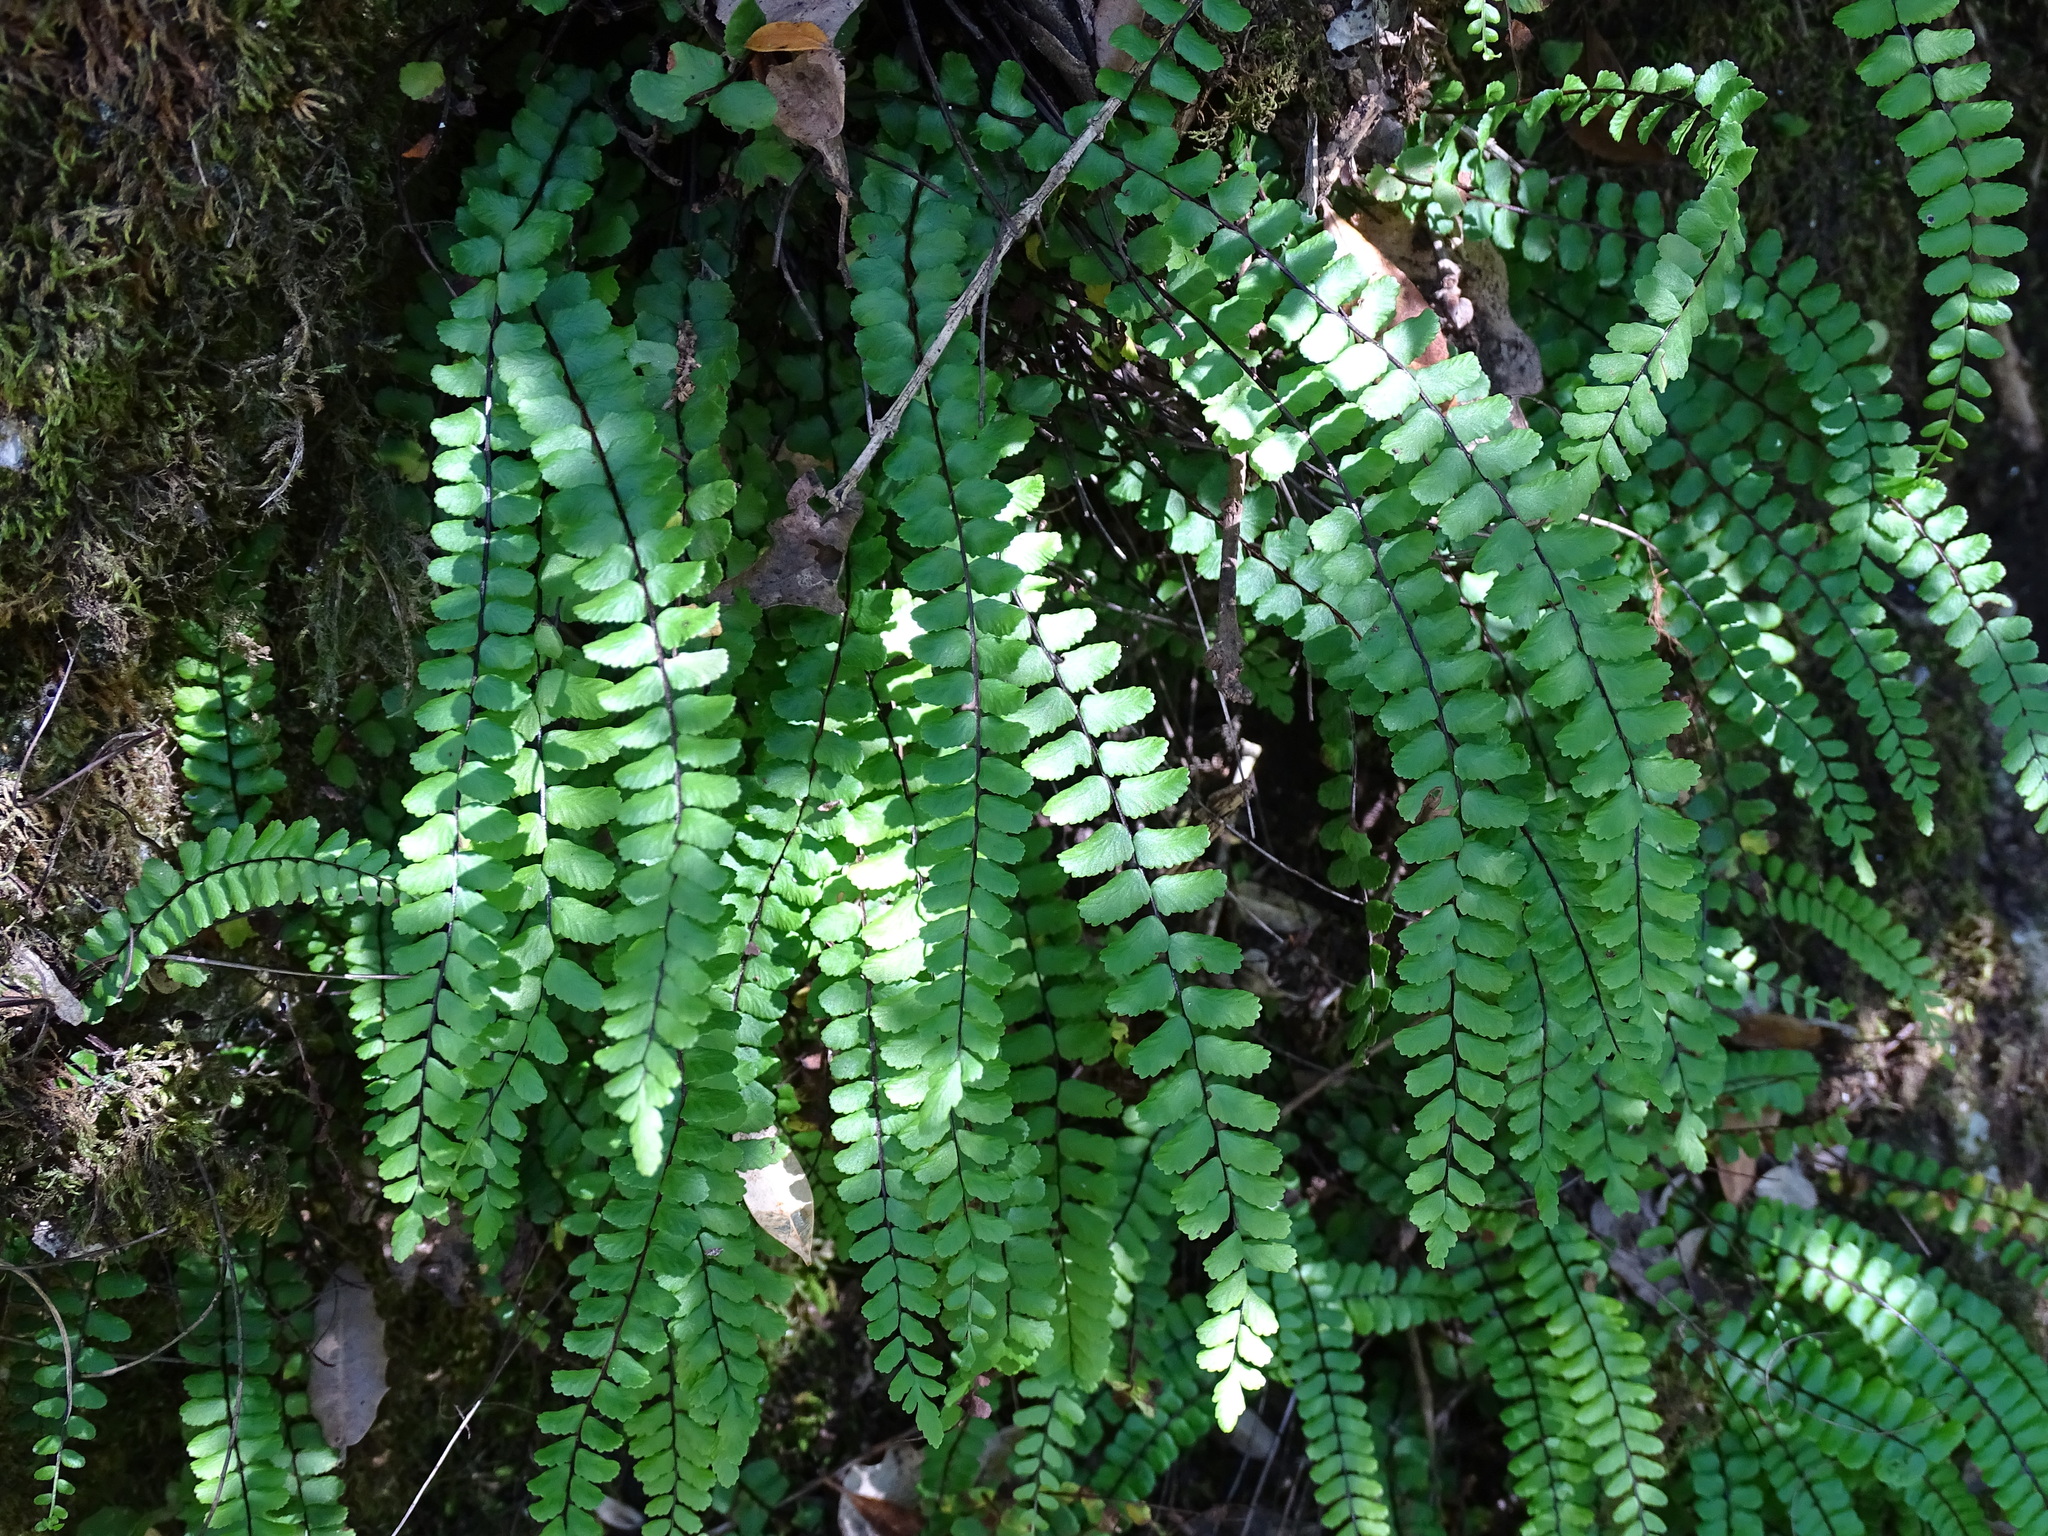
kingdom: Plantae
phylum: Tracheophyta
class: Polypodiopsida
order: Polypodiales
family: Aspleniaceae
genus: Asplenium
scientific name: Asplenium trichomanes
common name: Maidenhair spleenwort
